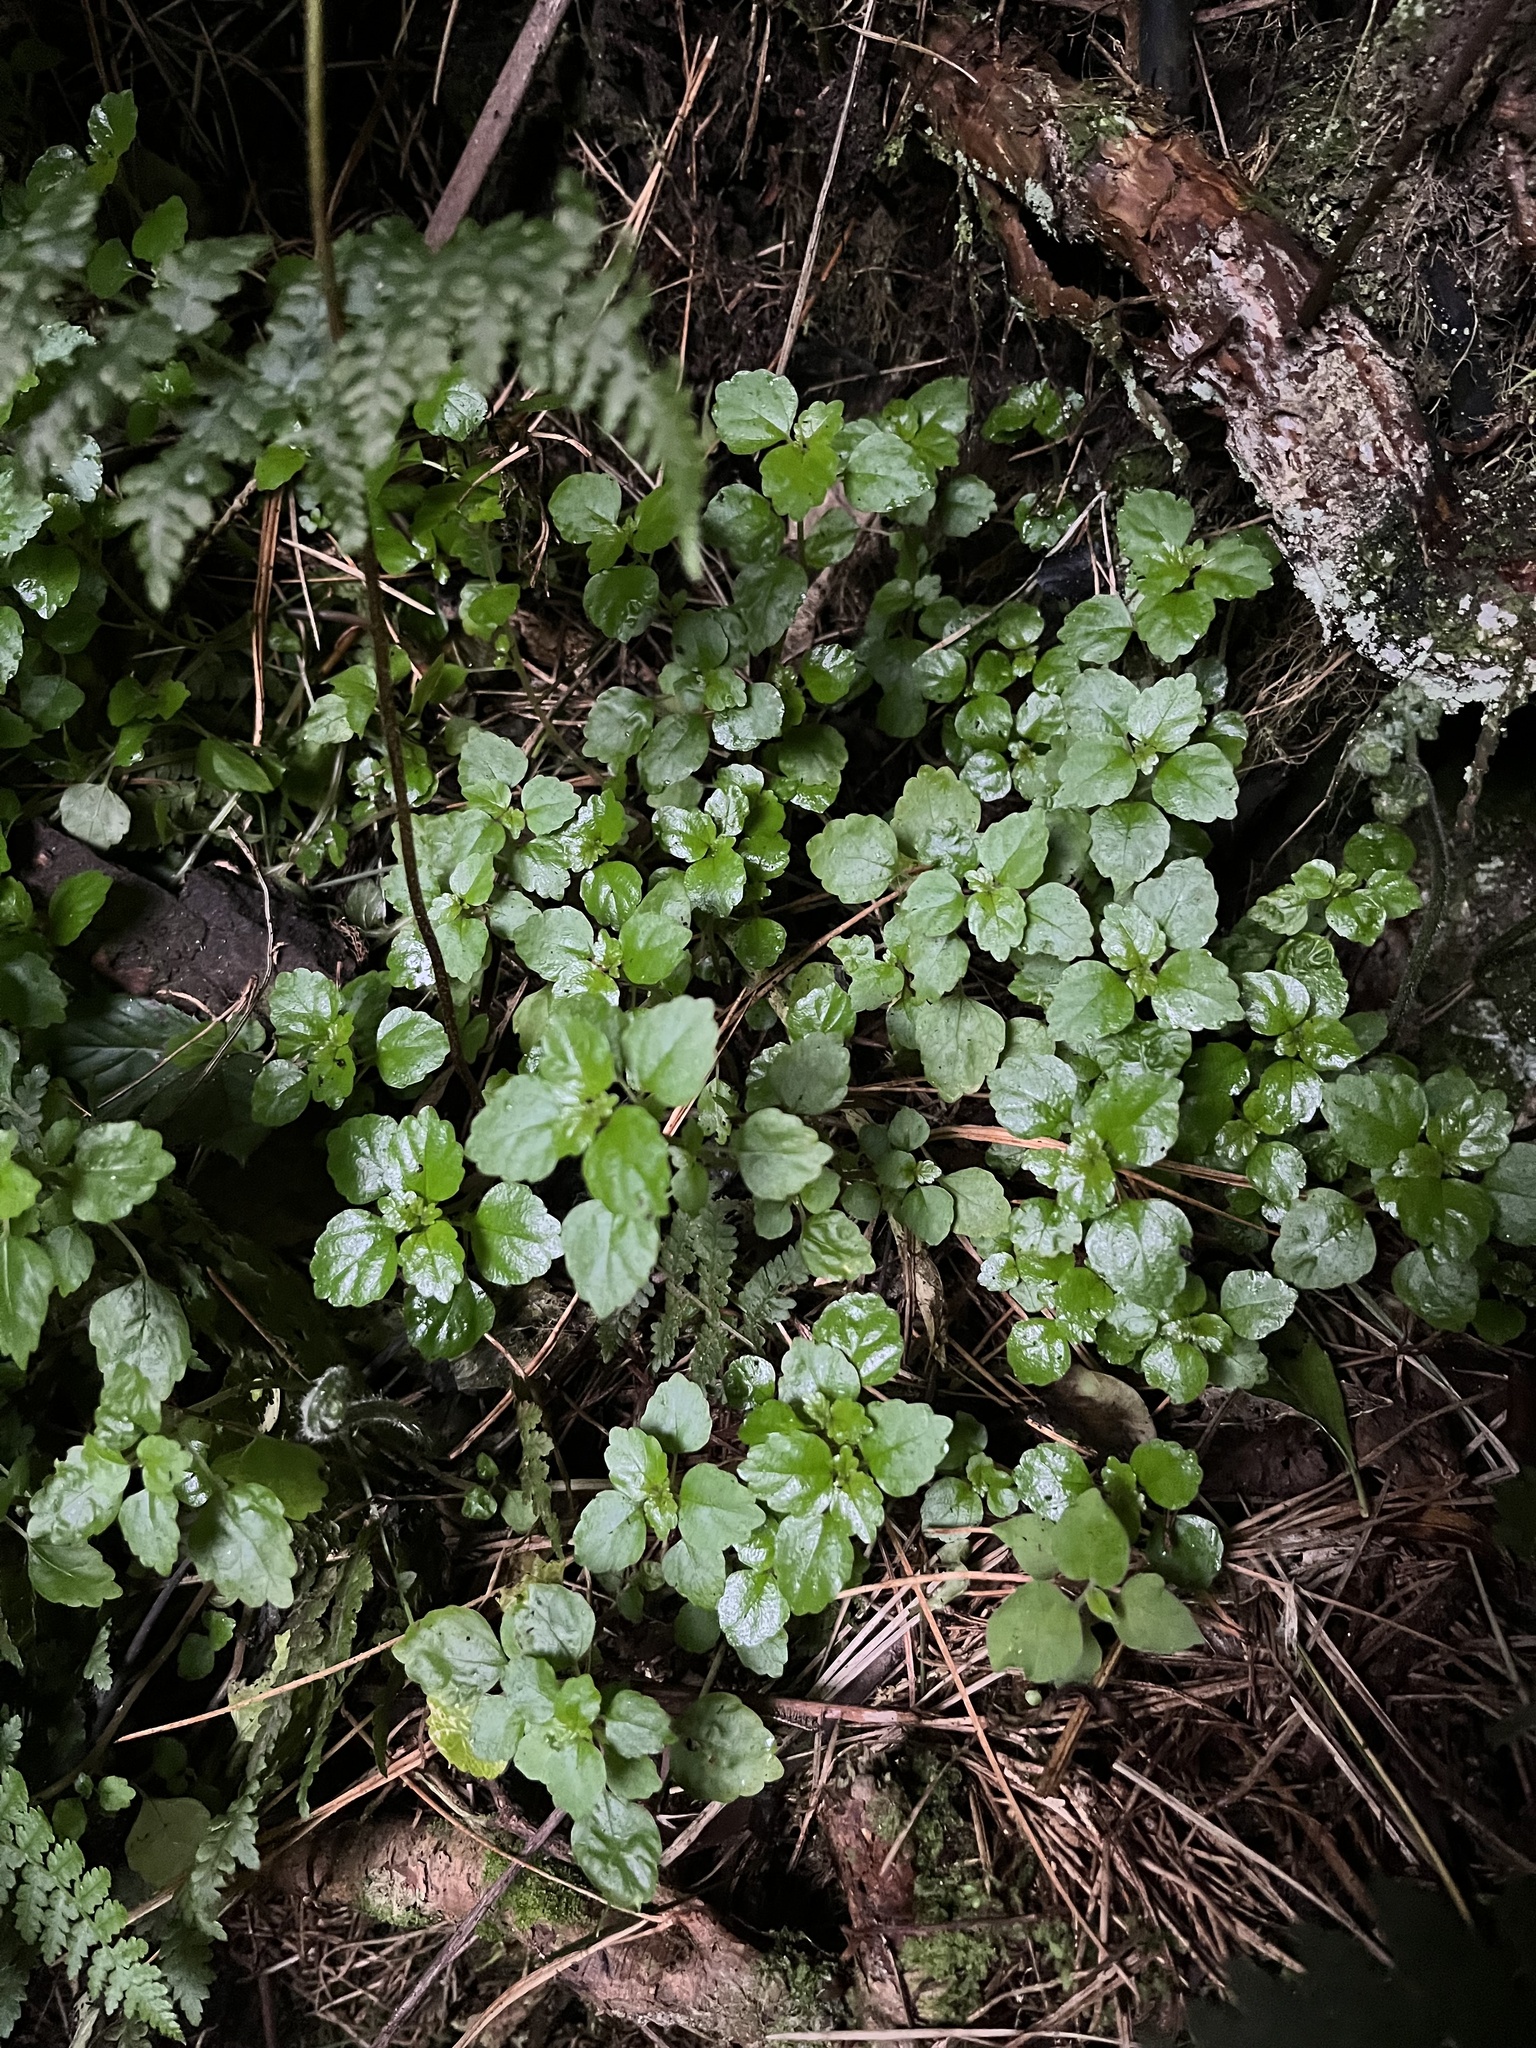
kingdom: Plantae
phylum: Tracheophyta
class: Magnoliopsida
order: Rosales
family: Urticaceae
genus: Australina
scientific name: Australina pusilla
